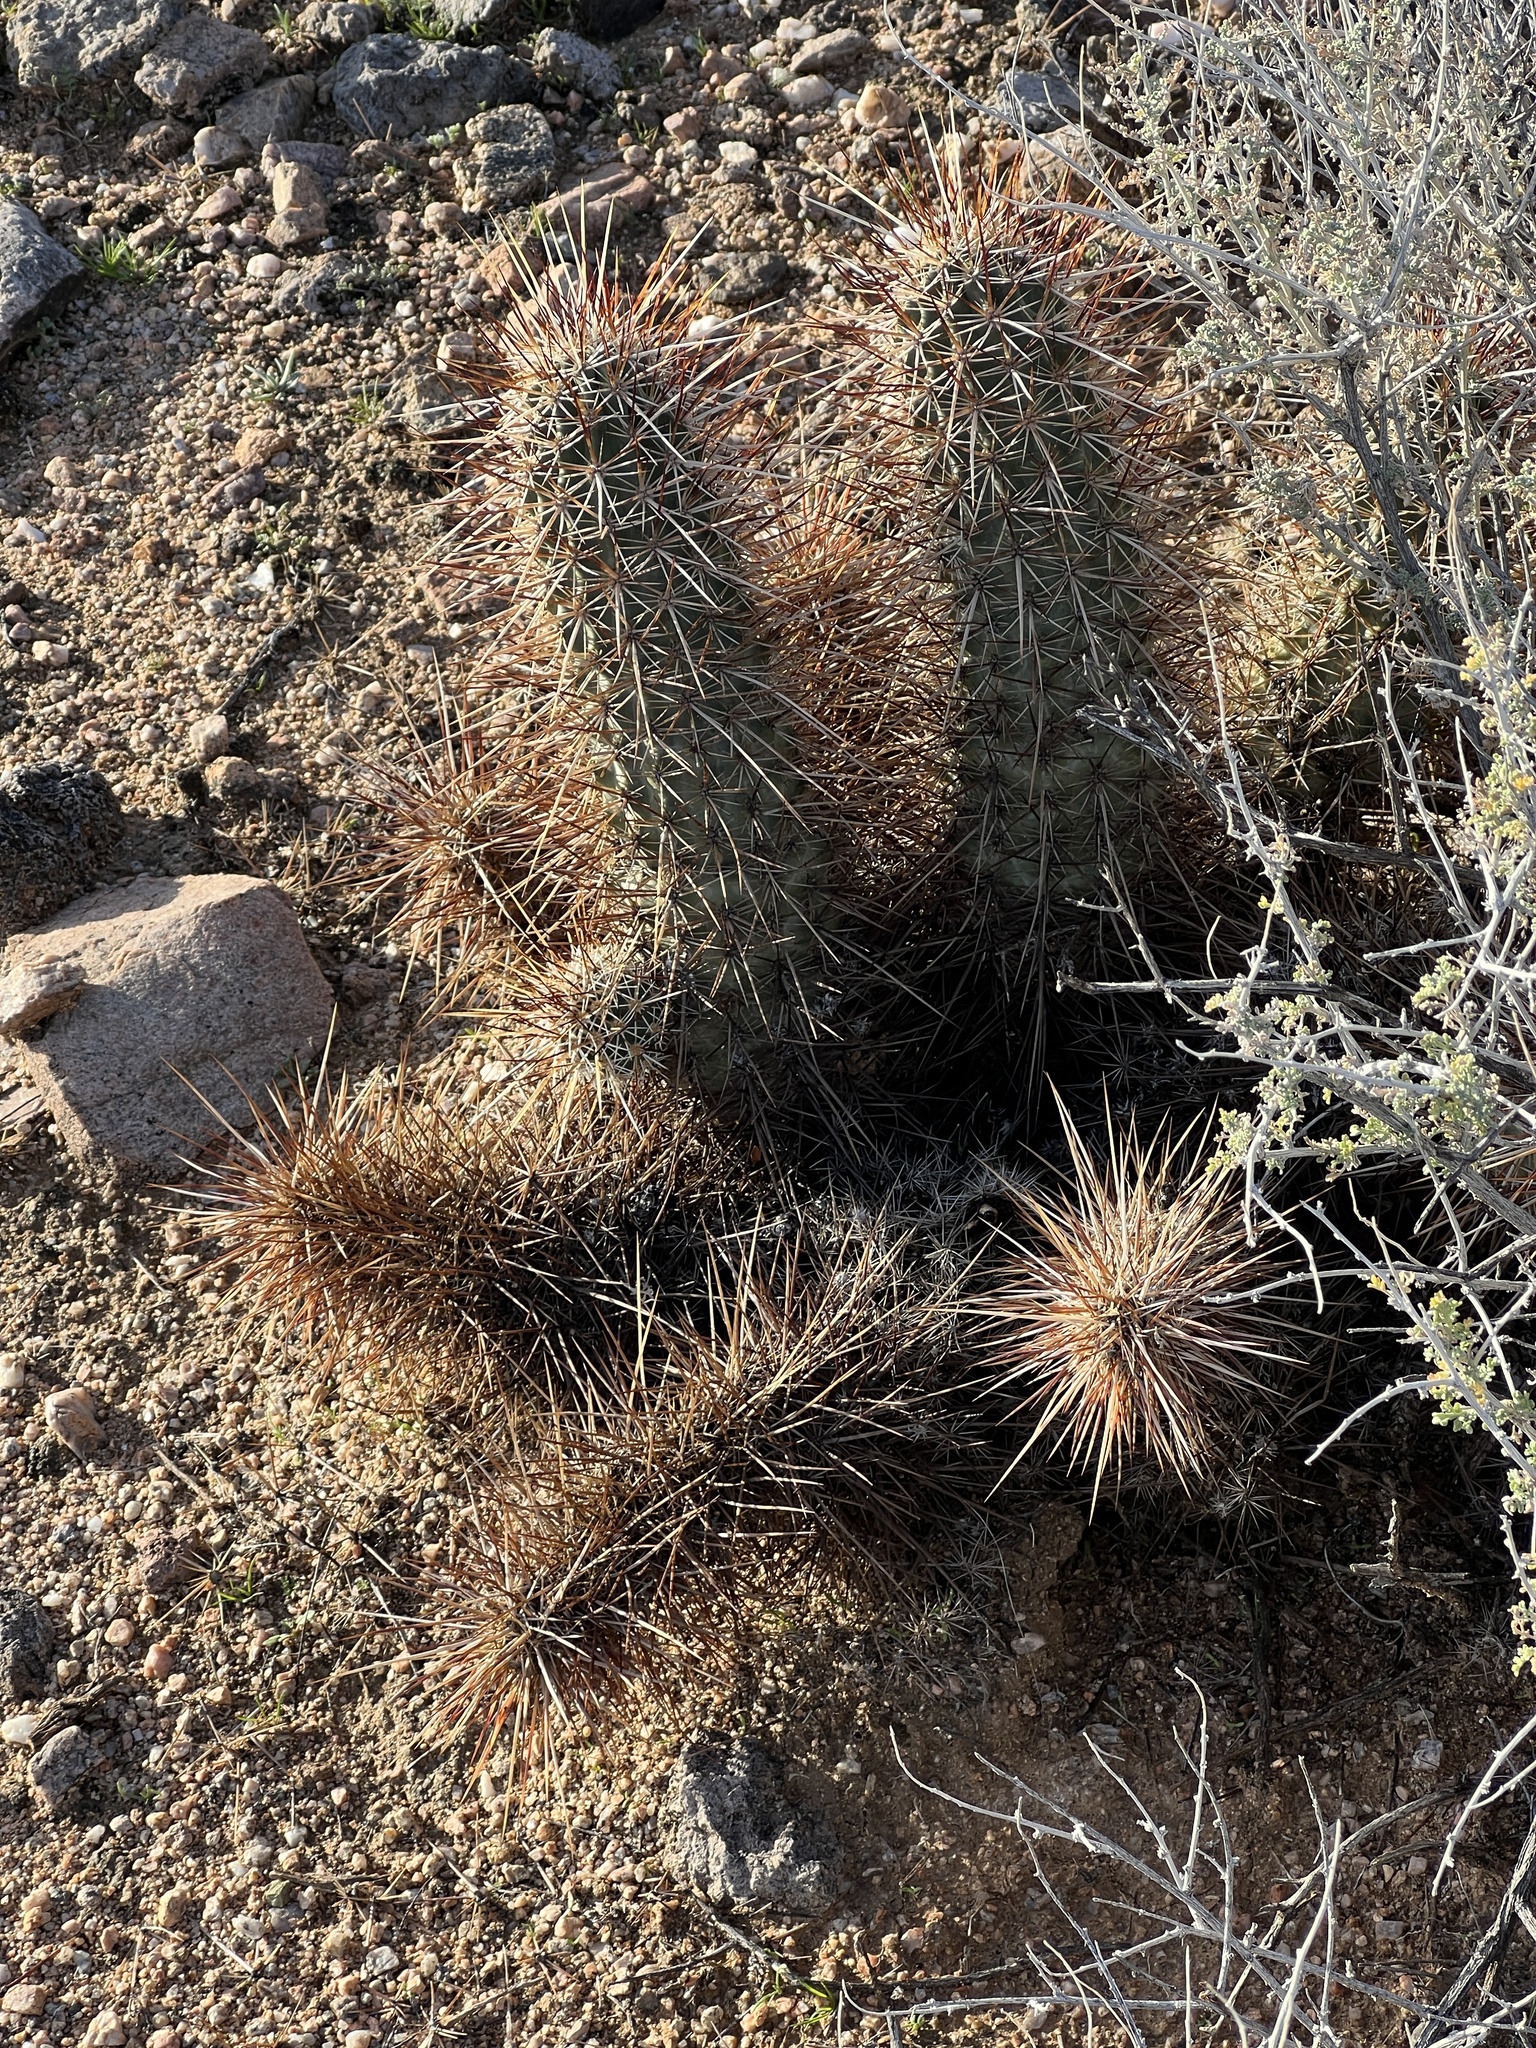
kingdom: Plantae
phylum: Tracheophyta
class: Magnoliopsida
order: Caryophyllales
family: Cactaceae
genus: Echinocereus
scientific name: Echinocereus engelmannii
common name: Engelmann's hedgehog cactus
